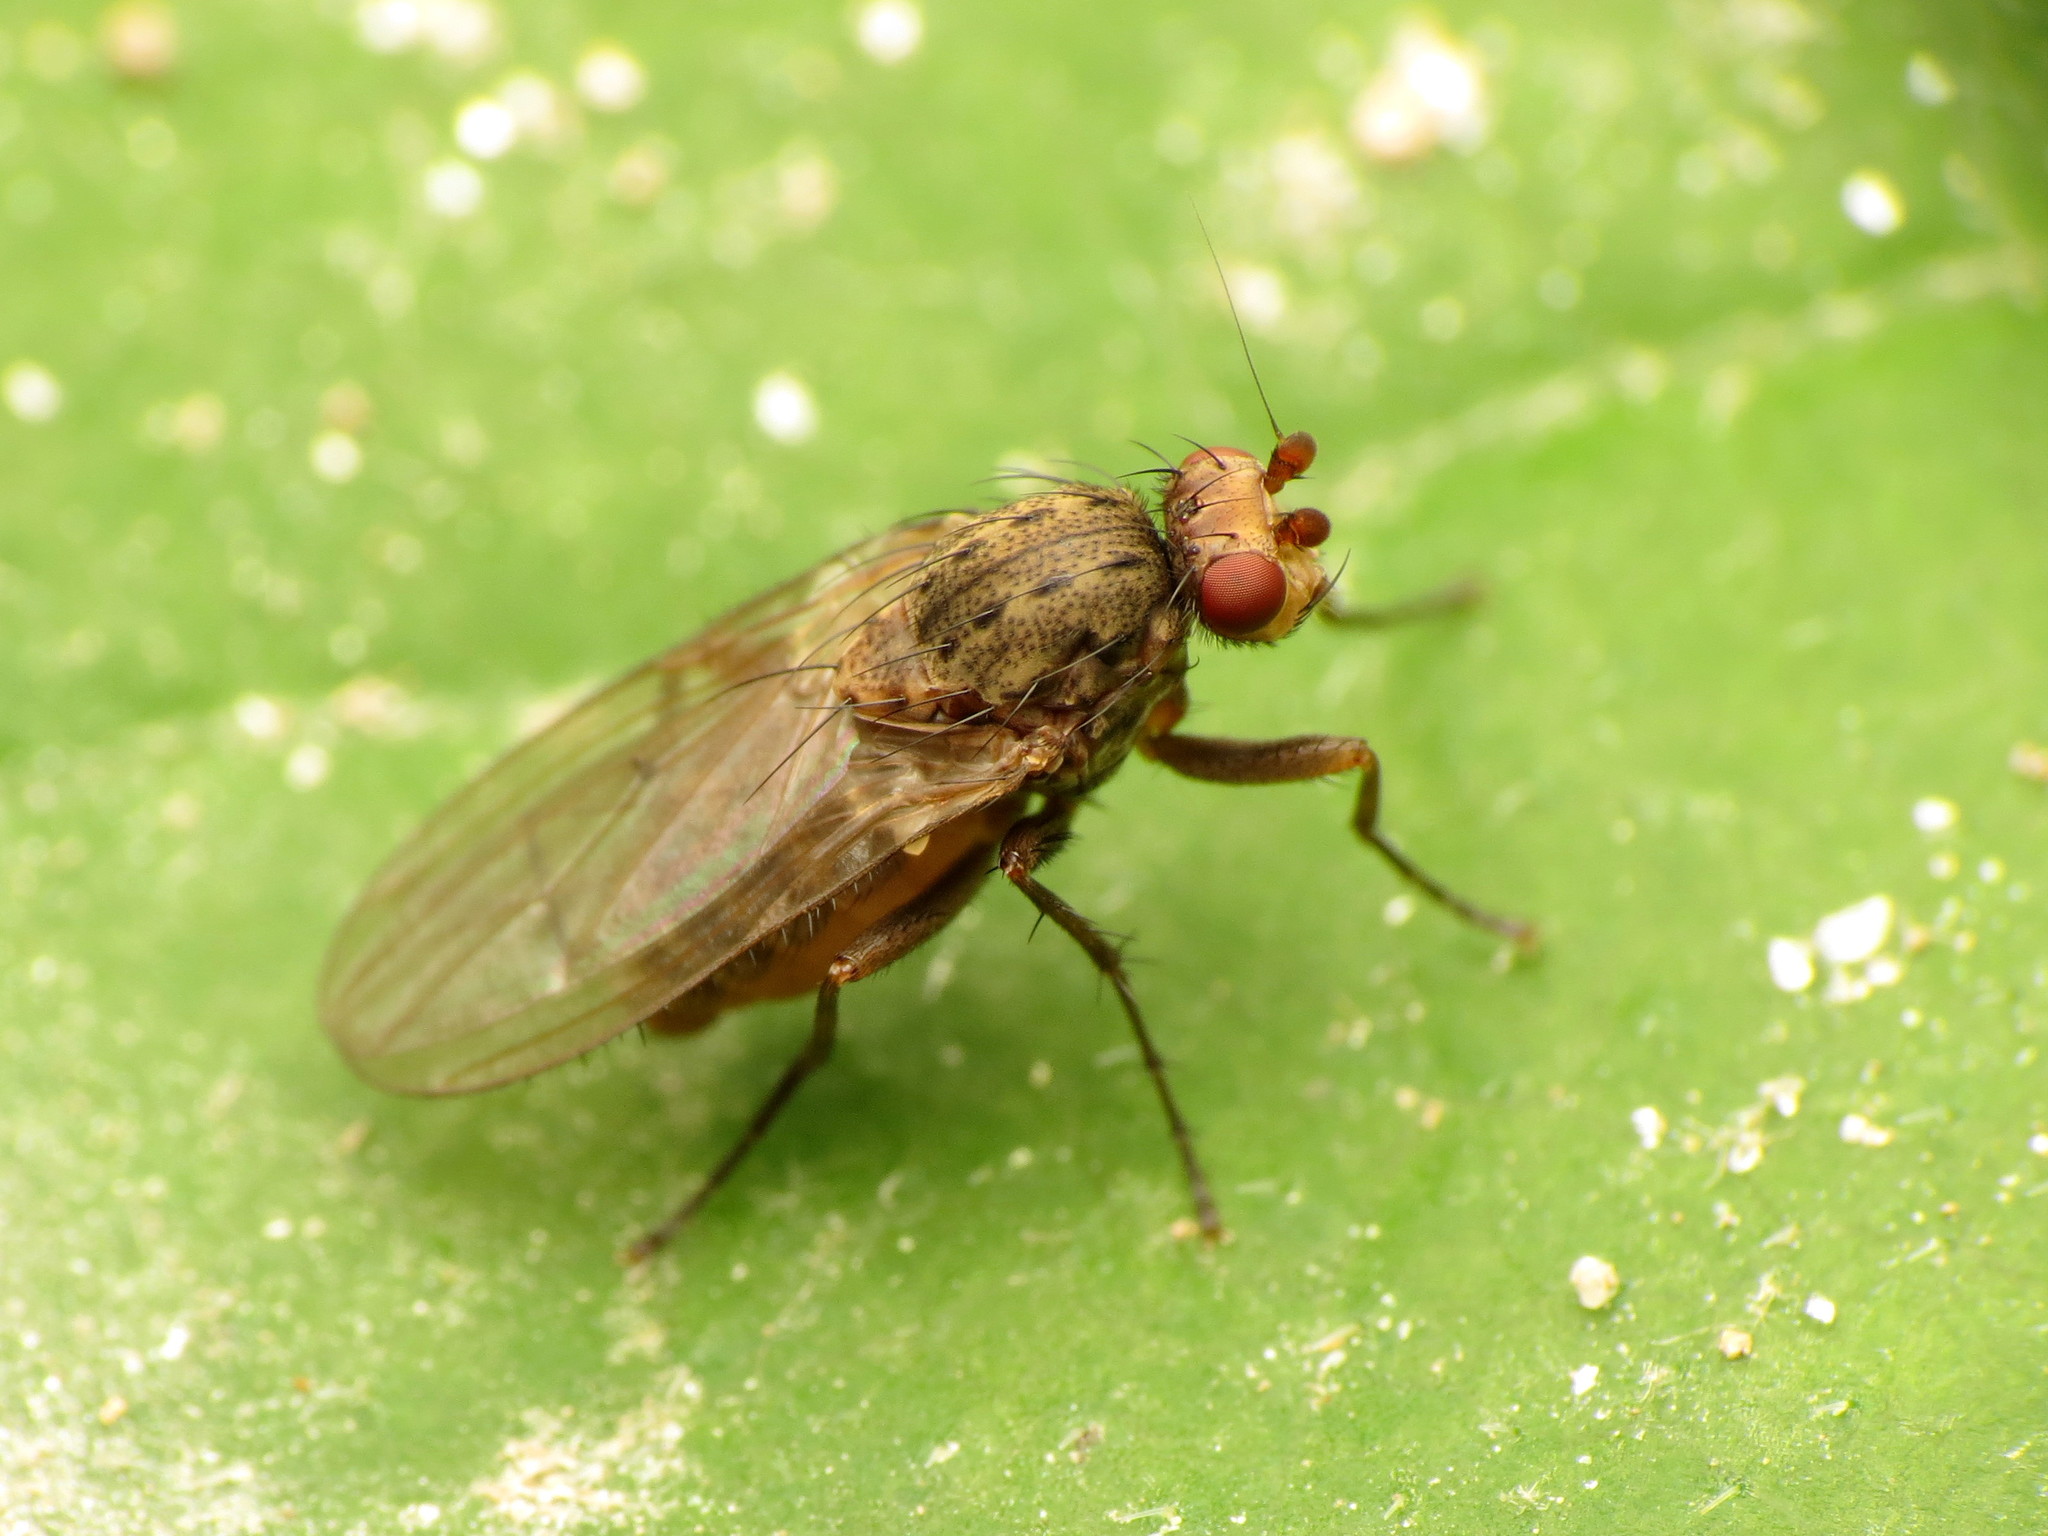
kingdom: Animalia
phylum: Arthropoda
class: Insecta
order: Diptera
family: Heleomyzidae
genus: Oecothea
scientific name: Oecothea
